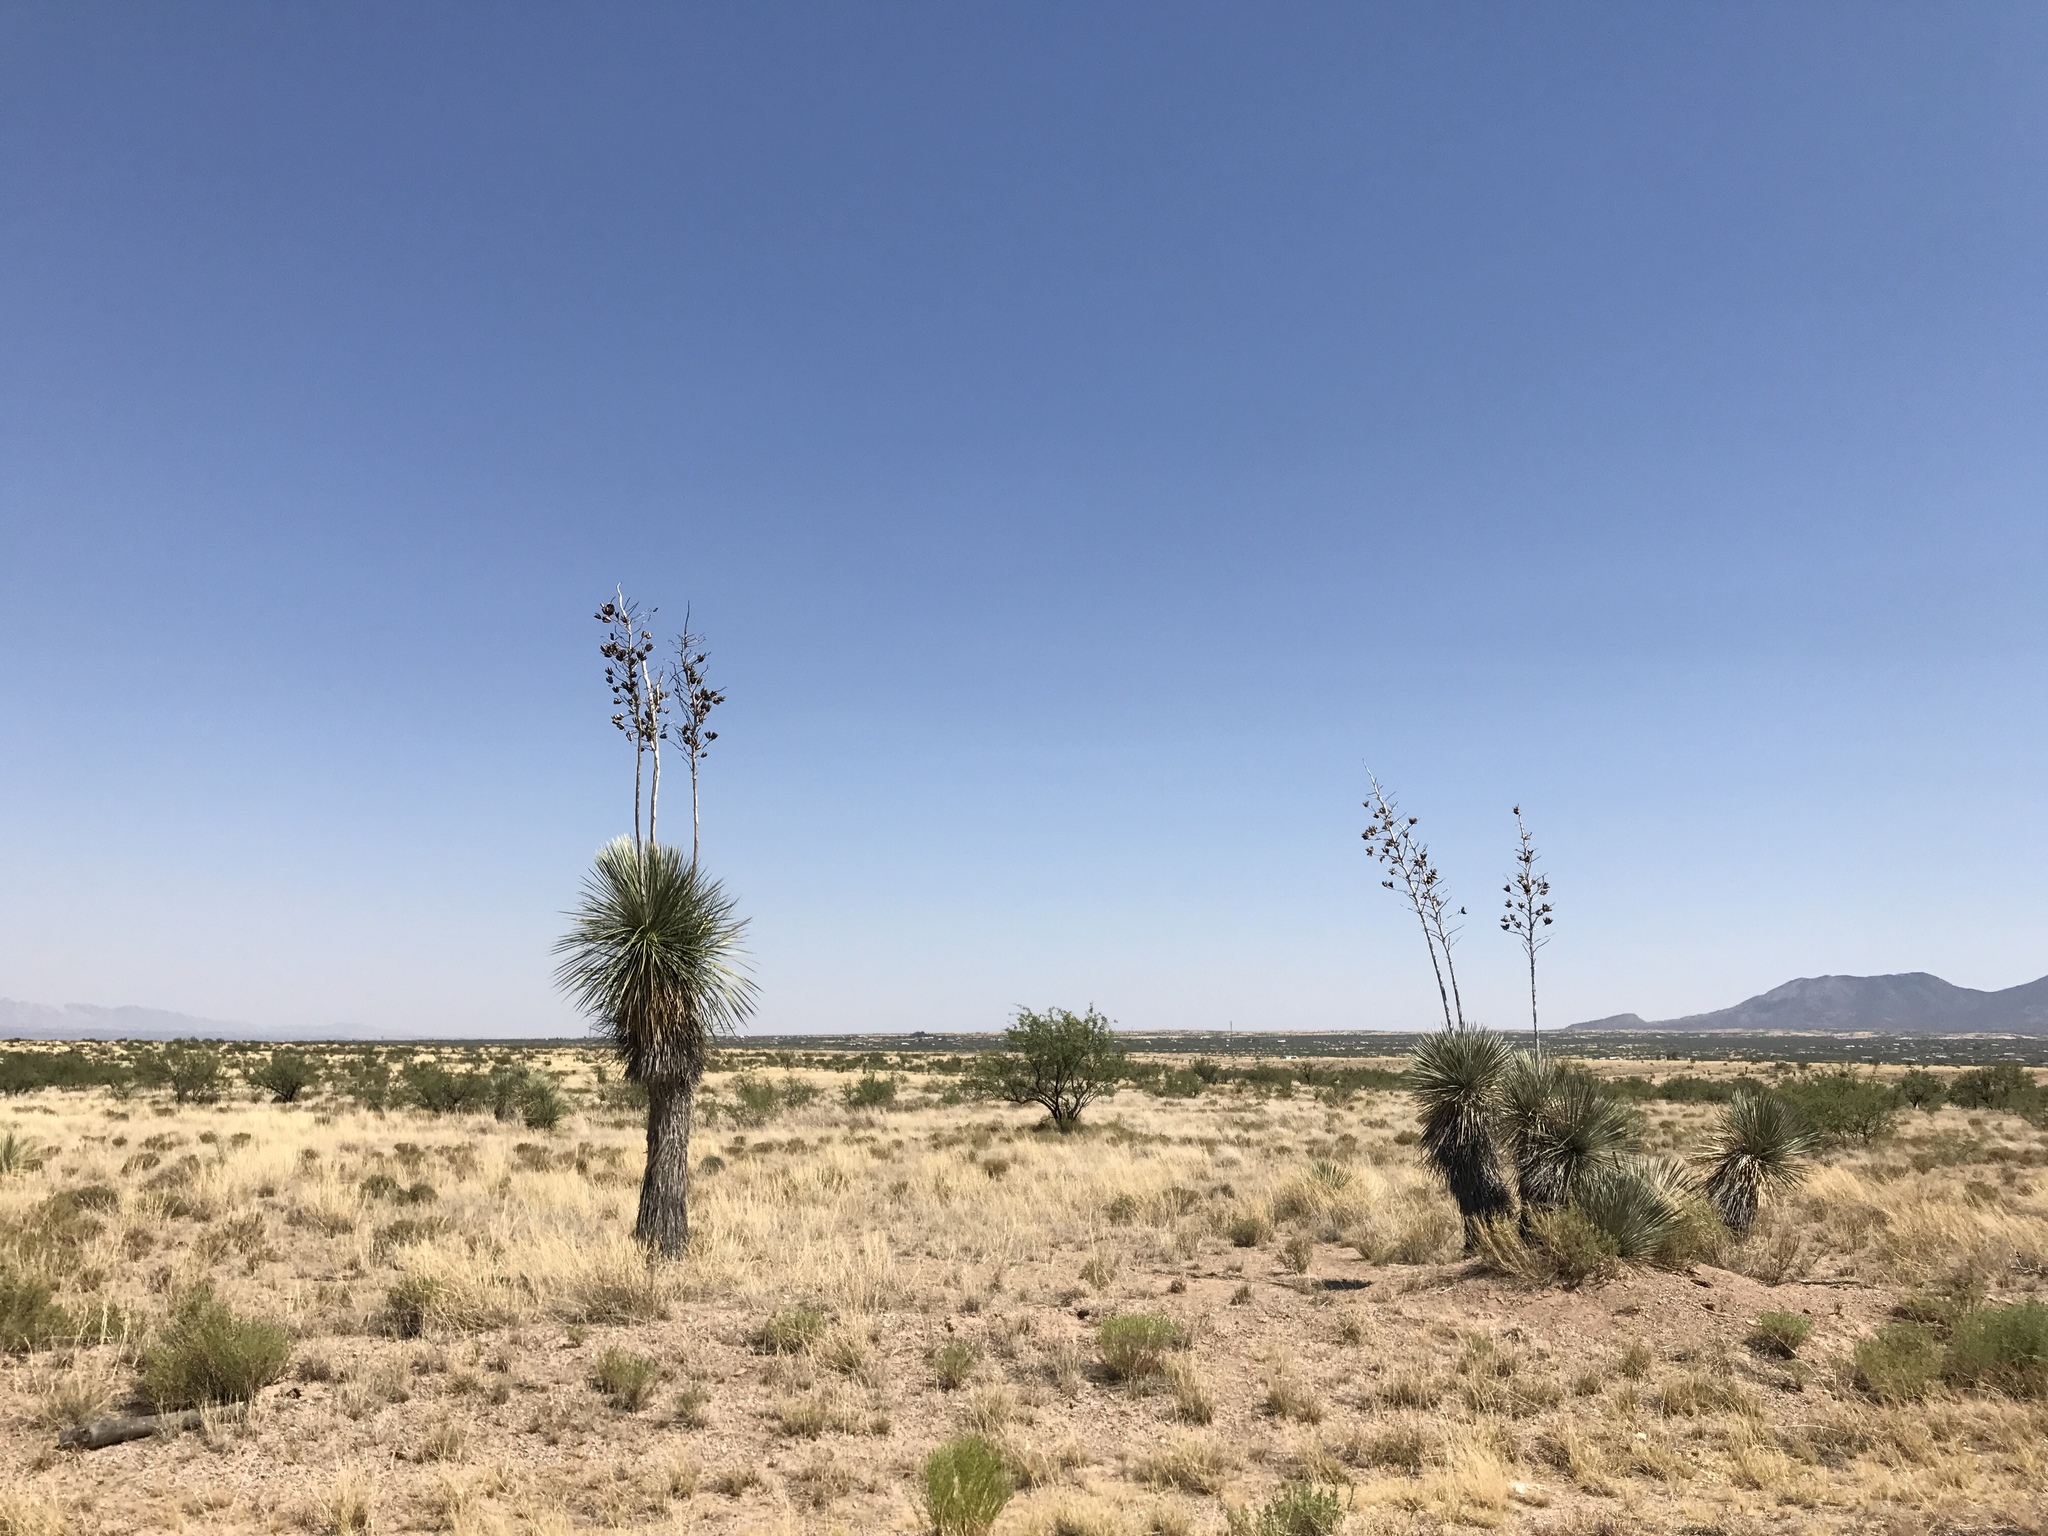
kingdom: Plantae
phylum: Tracheophyta
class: Liliopsida
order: Asparagales
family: Asparagaceae
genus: Yucca
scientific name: Yucca elata
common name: Palmella
